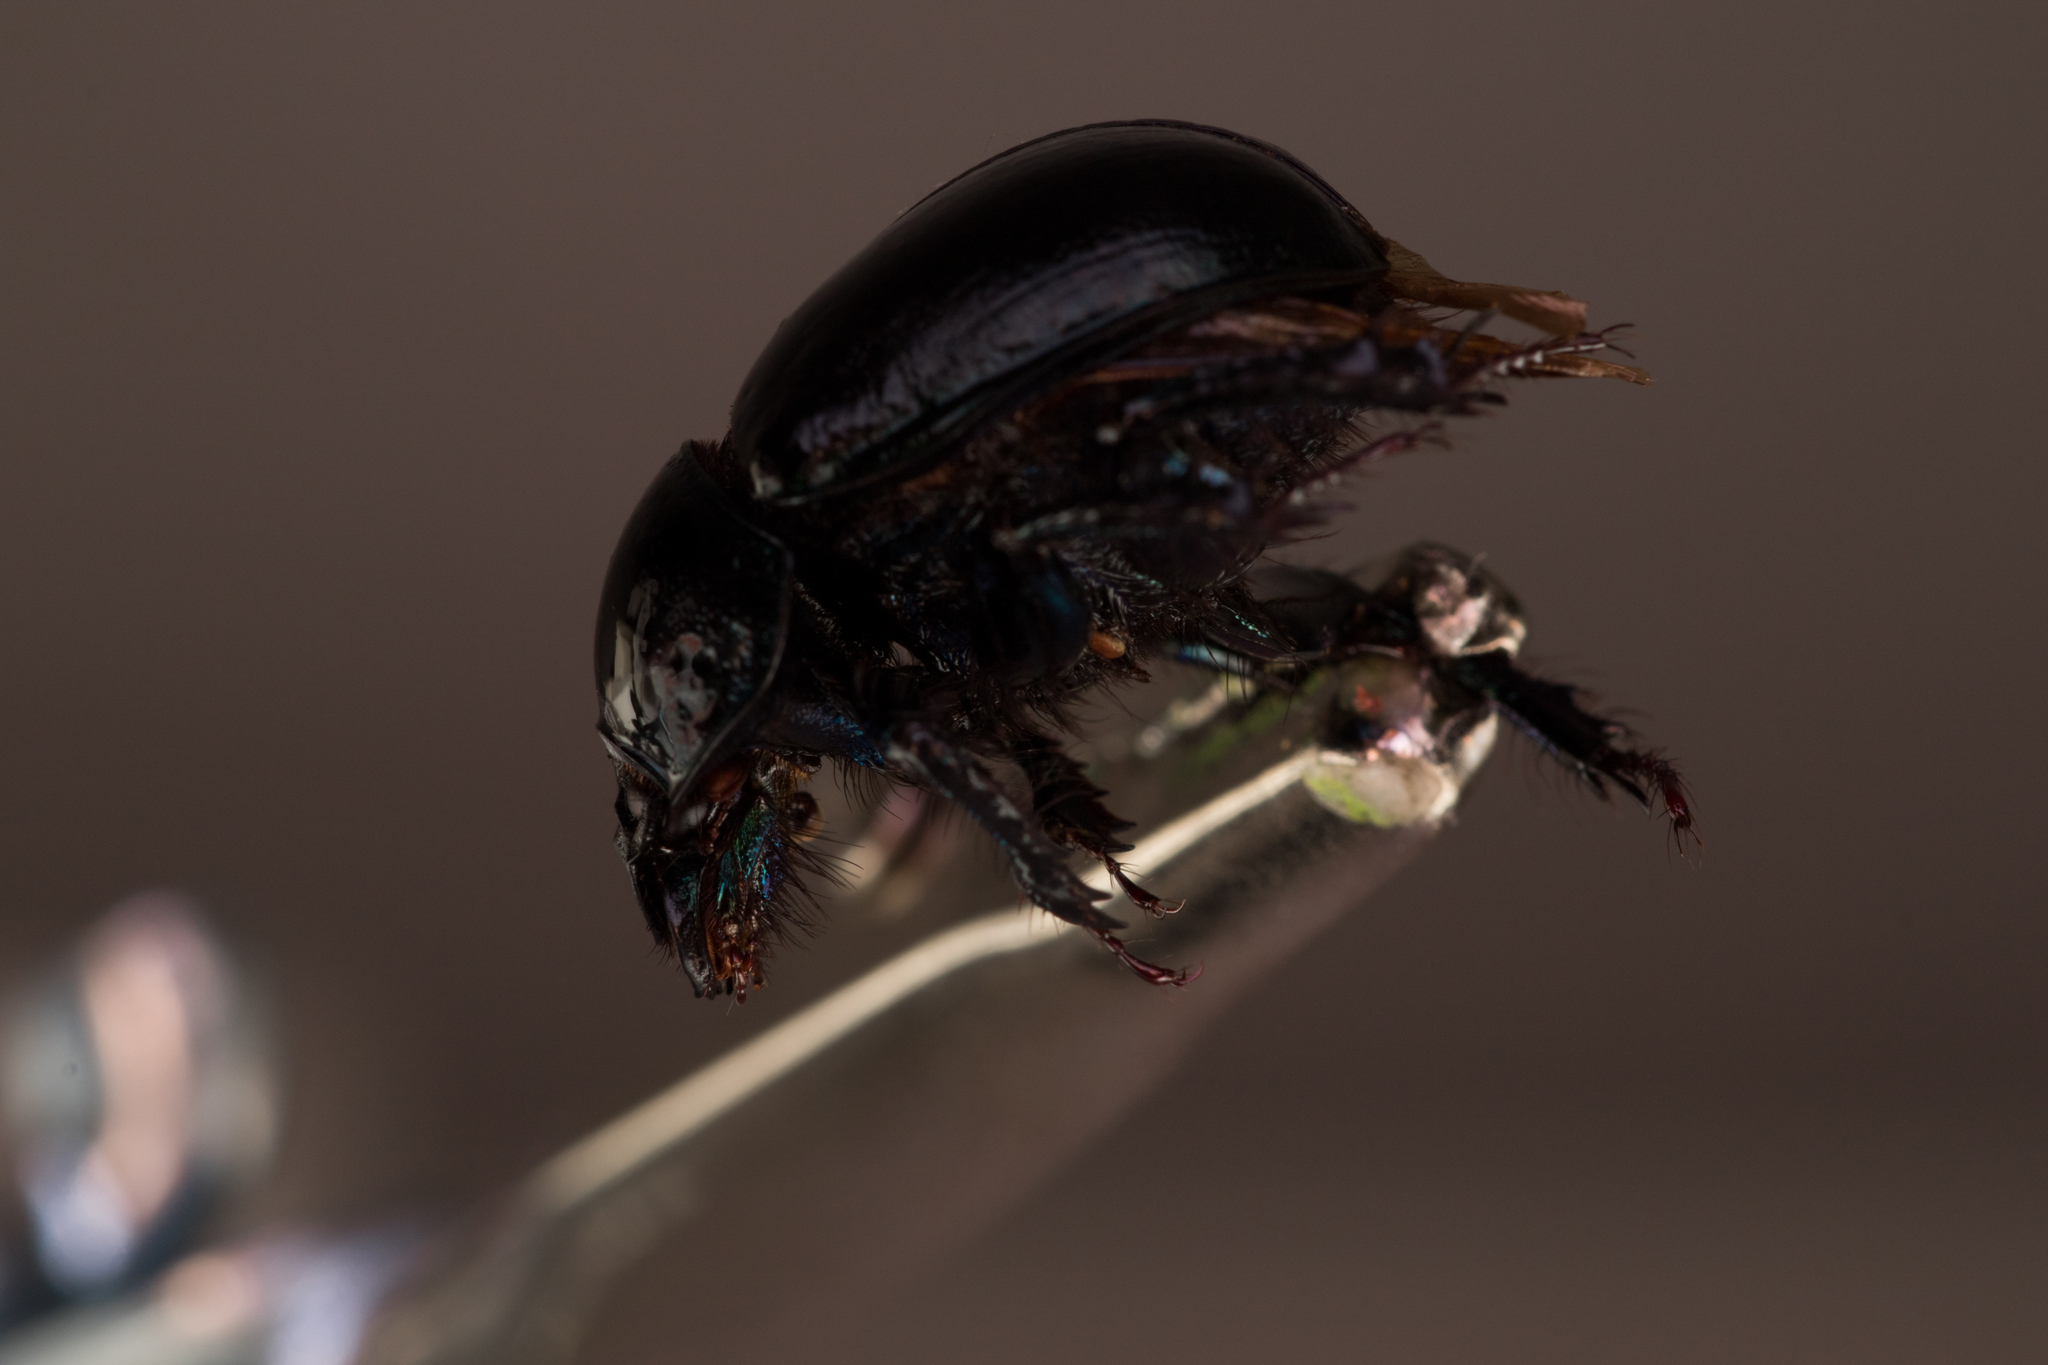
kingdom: Animalia
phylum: Arthropoda
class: Insecta
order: Coleoptera
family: Geotrupidae
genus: Anoplotrupes
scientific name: Anoplotrupes stercorosus
